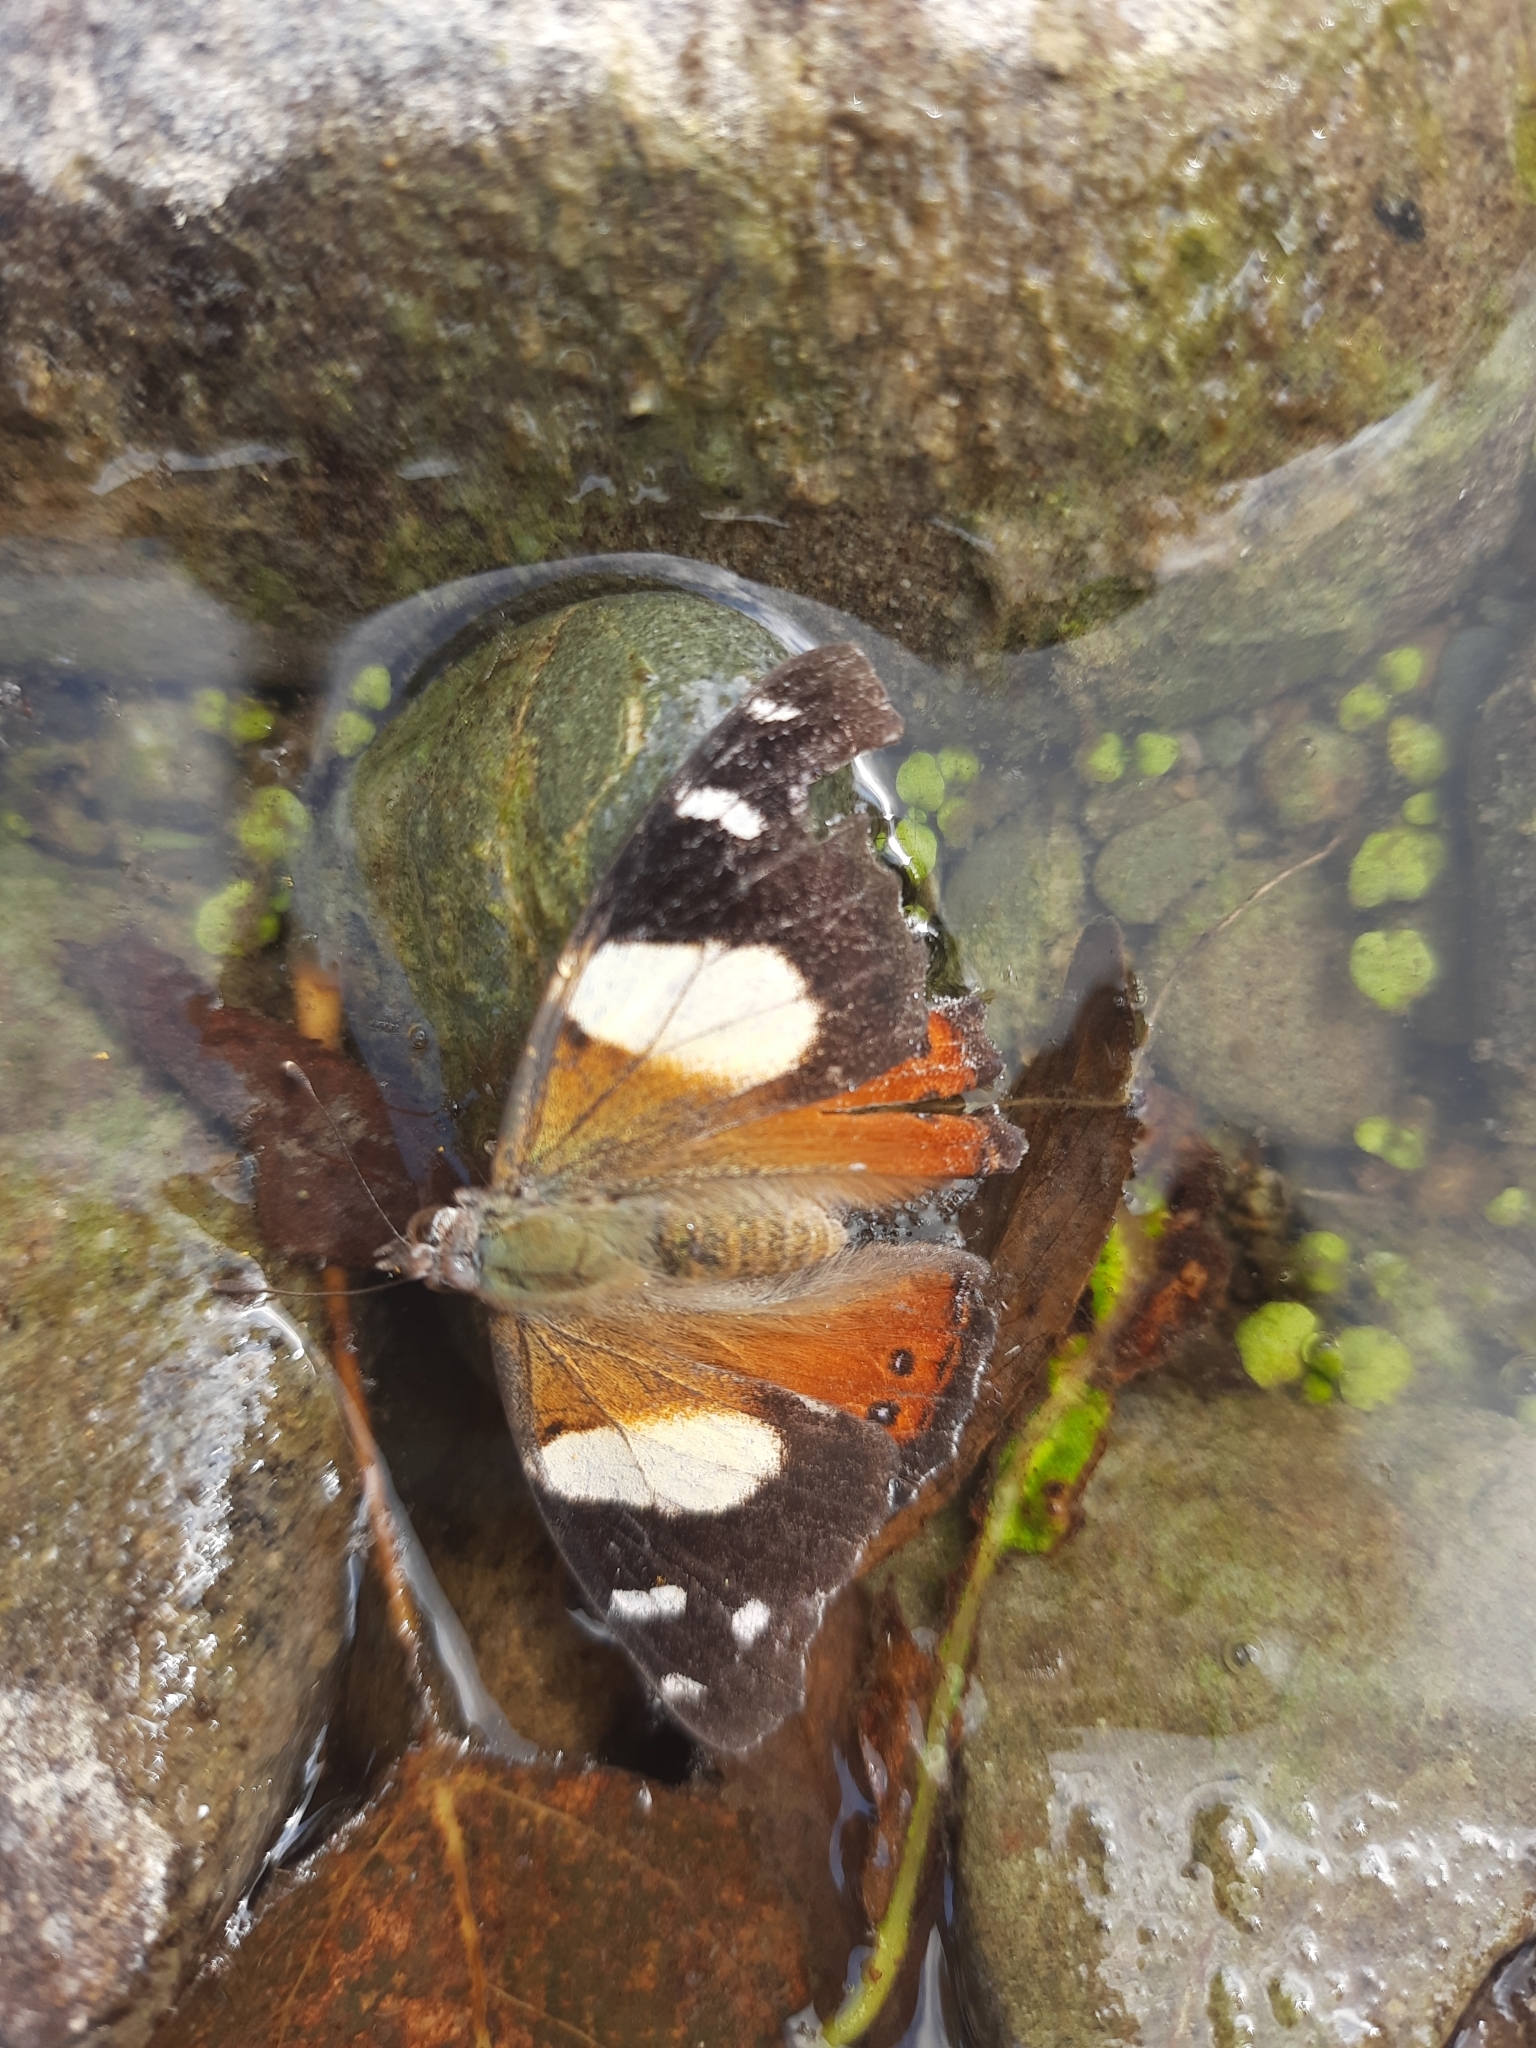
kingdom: Animalia
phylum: Arthropoda
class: Insecta
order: Lepidoptera
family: Nymphalidae
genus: Vanessa
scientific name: Vanessa itea
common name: Yellow admiral
